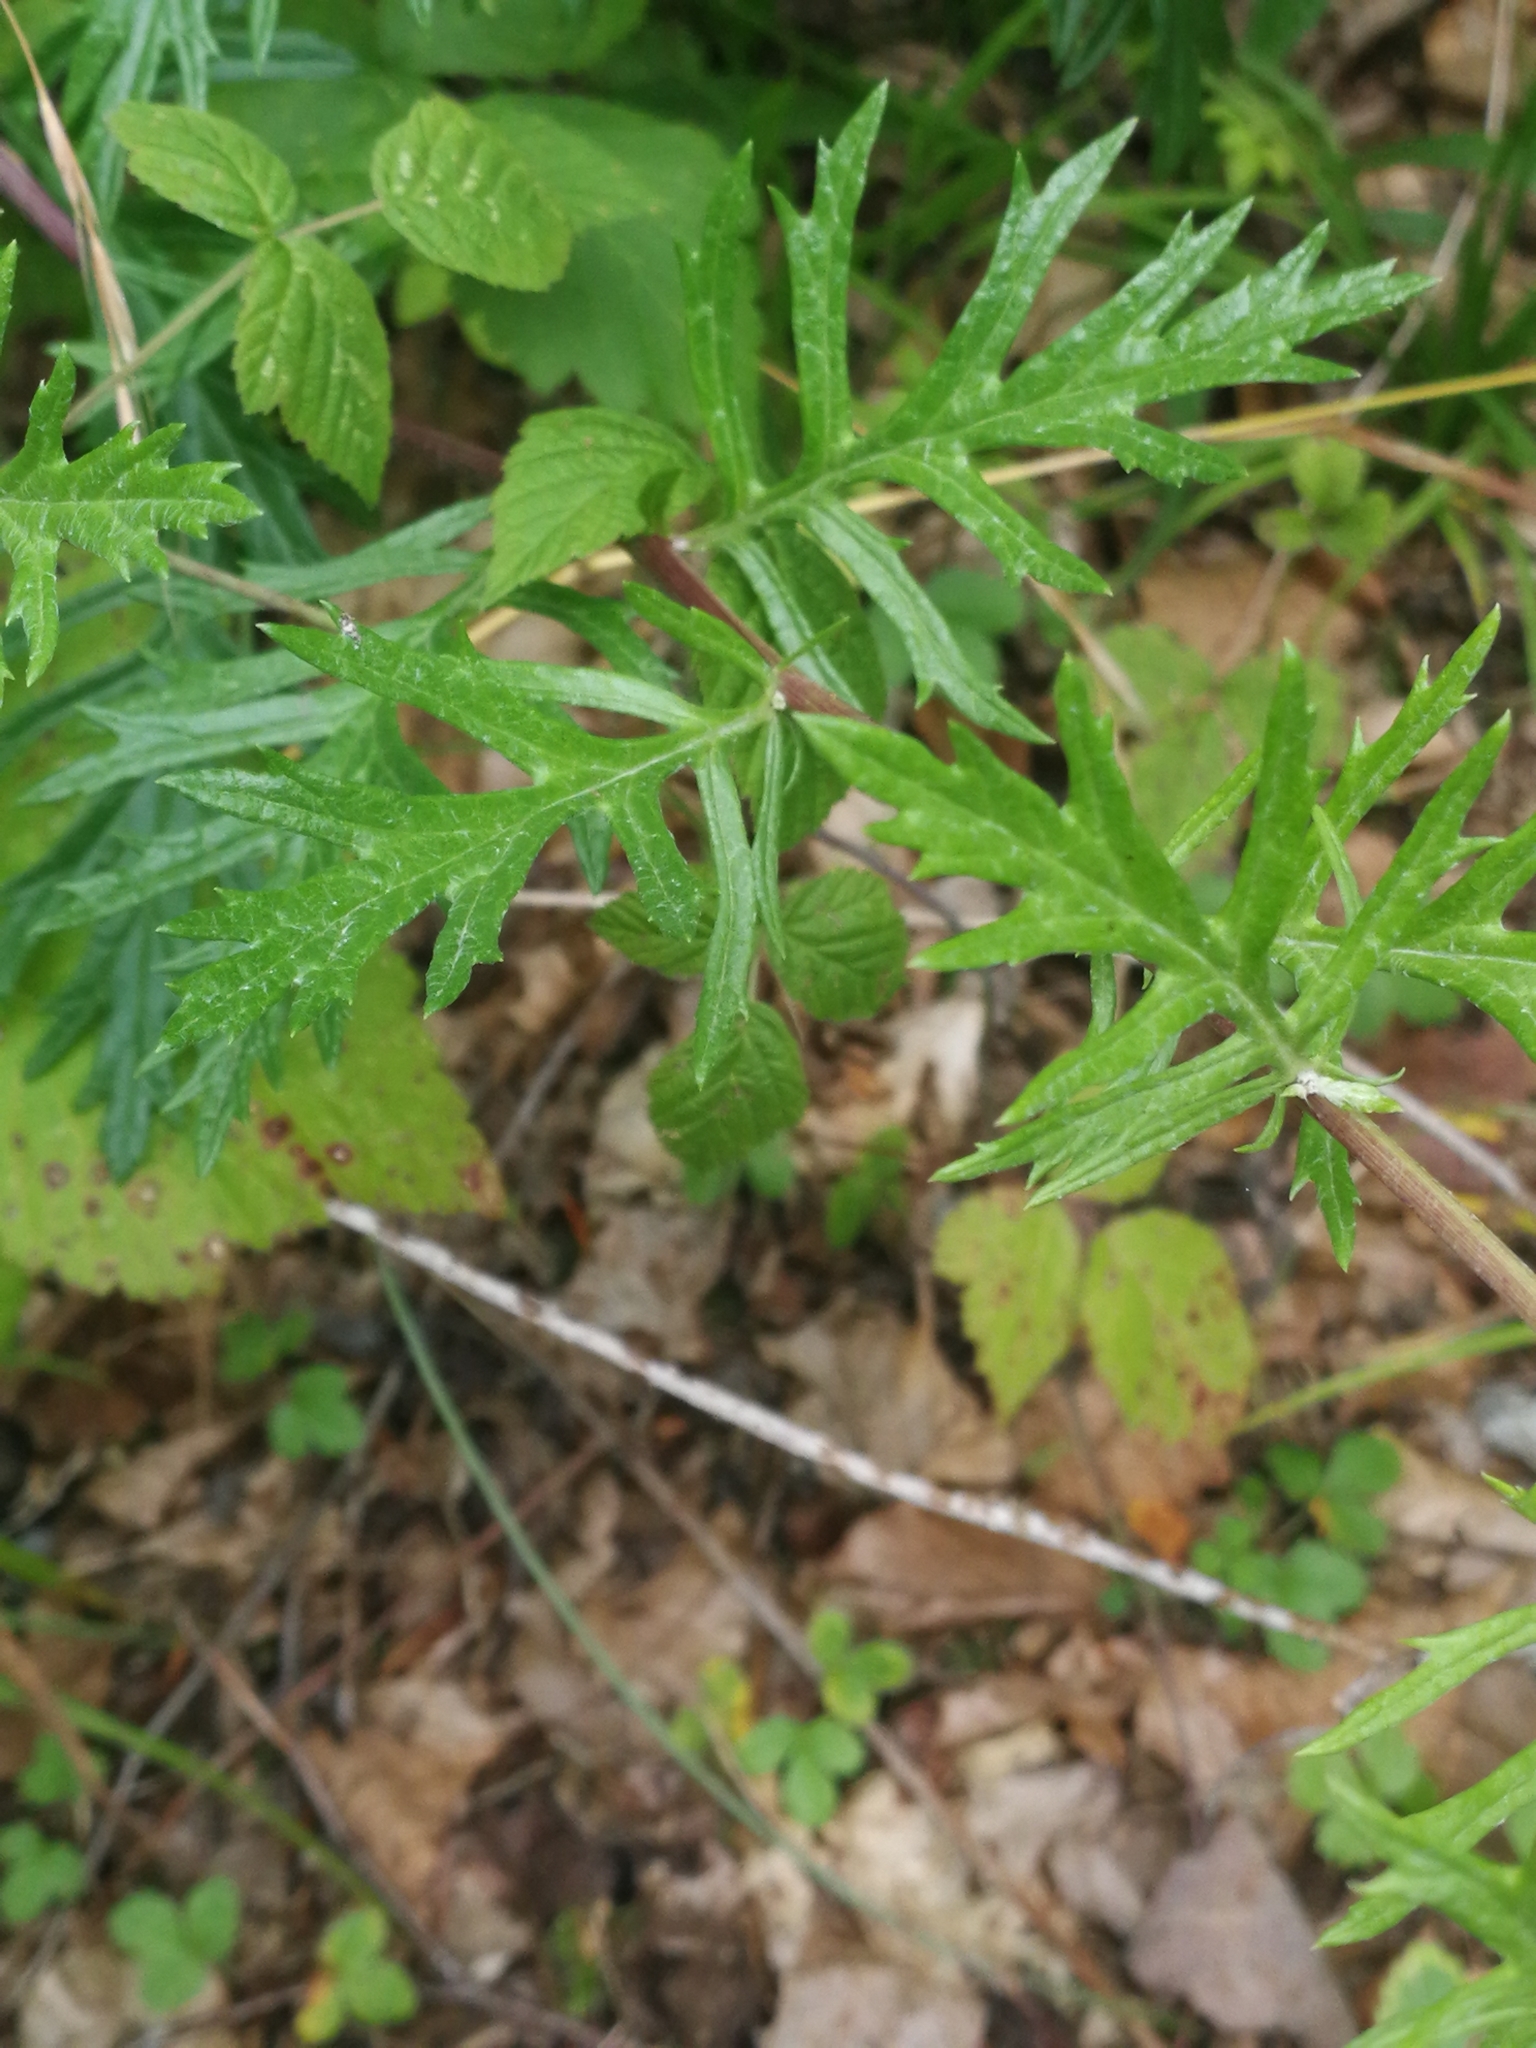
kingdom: Plantae
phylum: Tracheophyta
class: Magnoliopsida
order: Asterales
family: Asteraceae
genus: Jacobaea
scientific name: Jacobaea erucifolia
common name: Hoary ragwort
